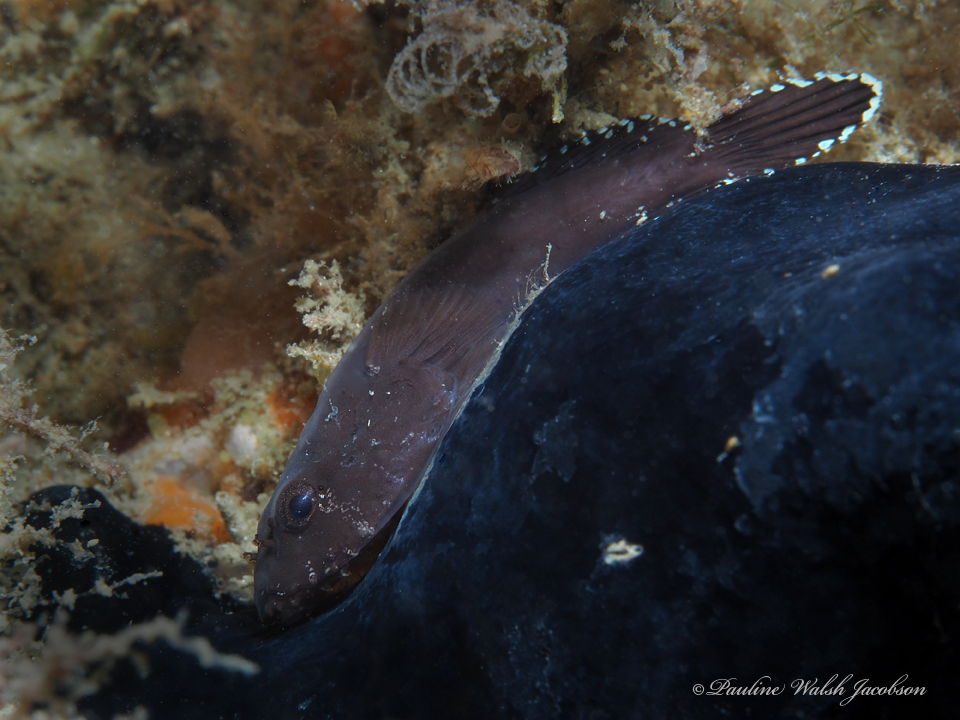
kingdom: Animalia
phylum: Chordata
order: Gobiesociformes
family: Gobiesocidae
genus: Gobiesox
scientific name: Gobiesox strumosus
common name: Skilletfish
